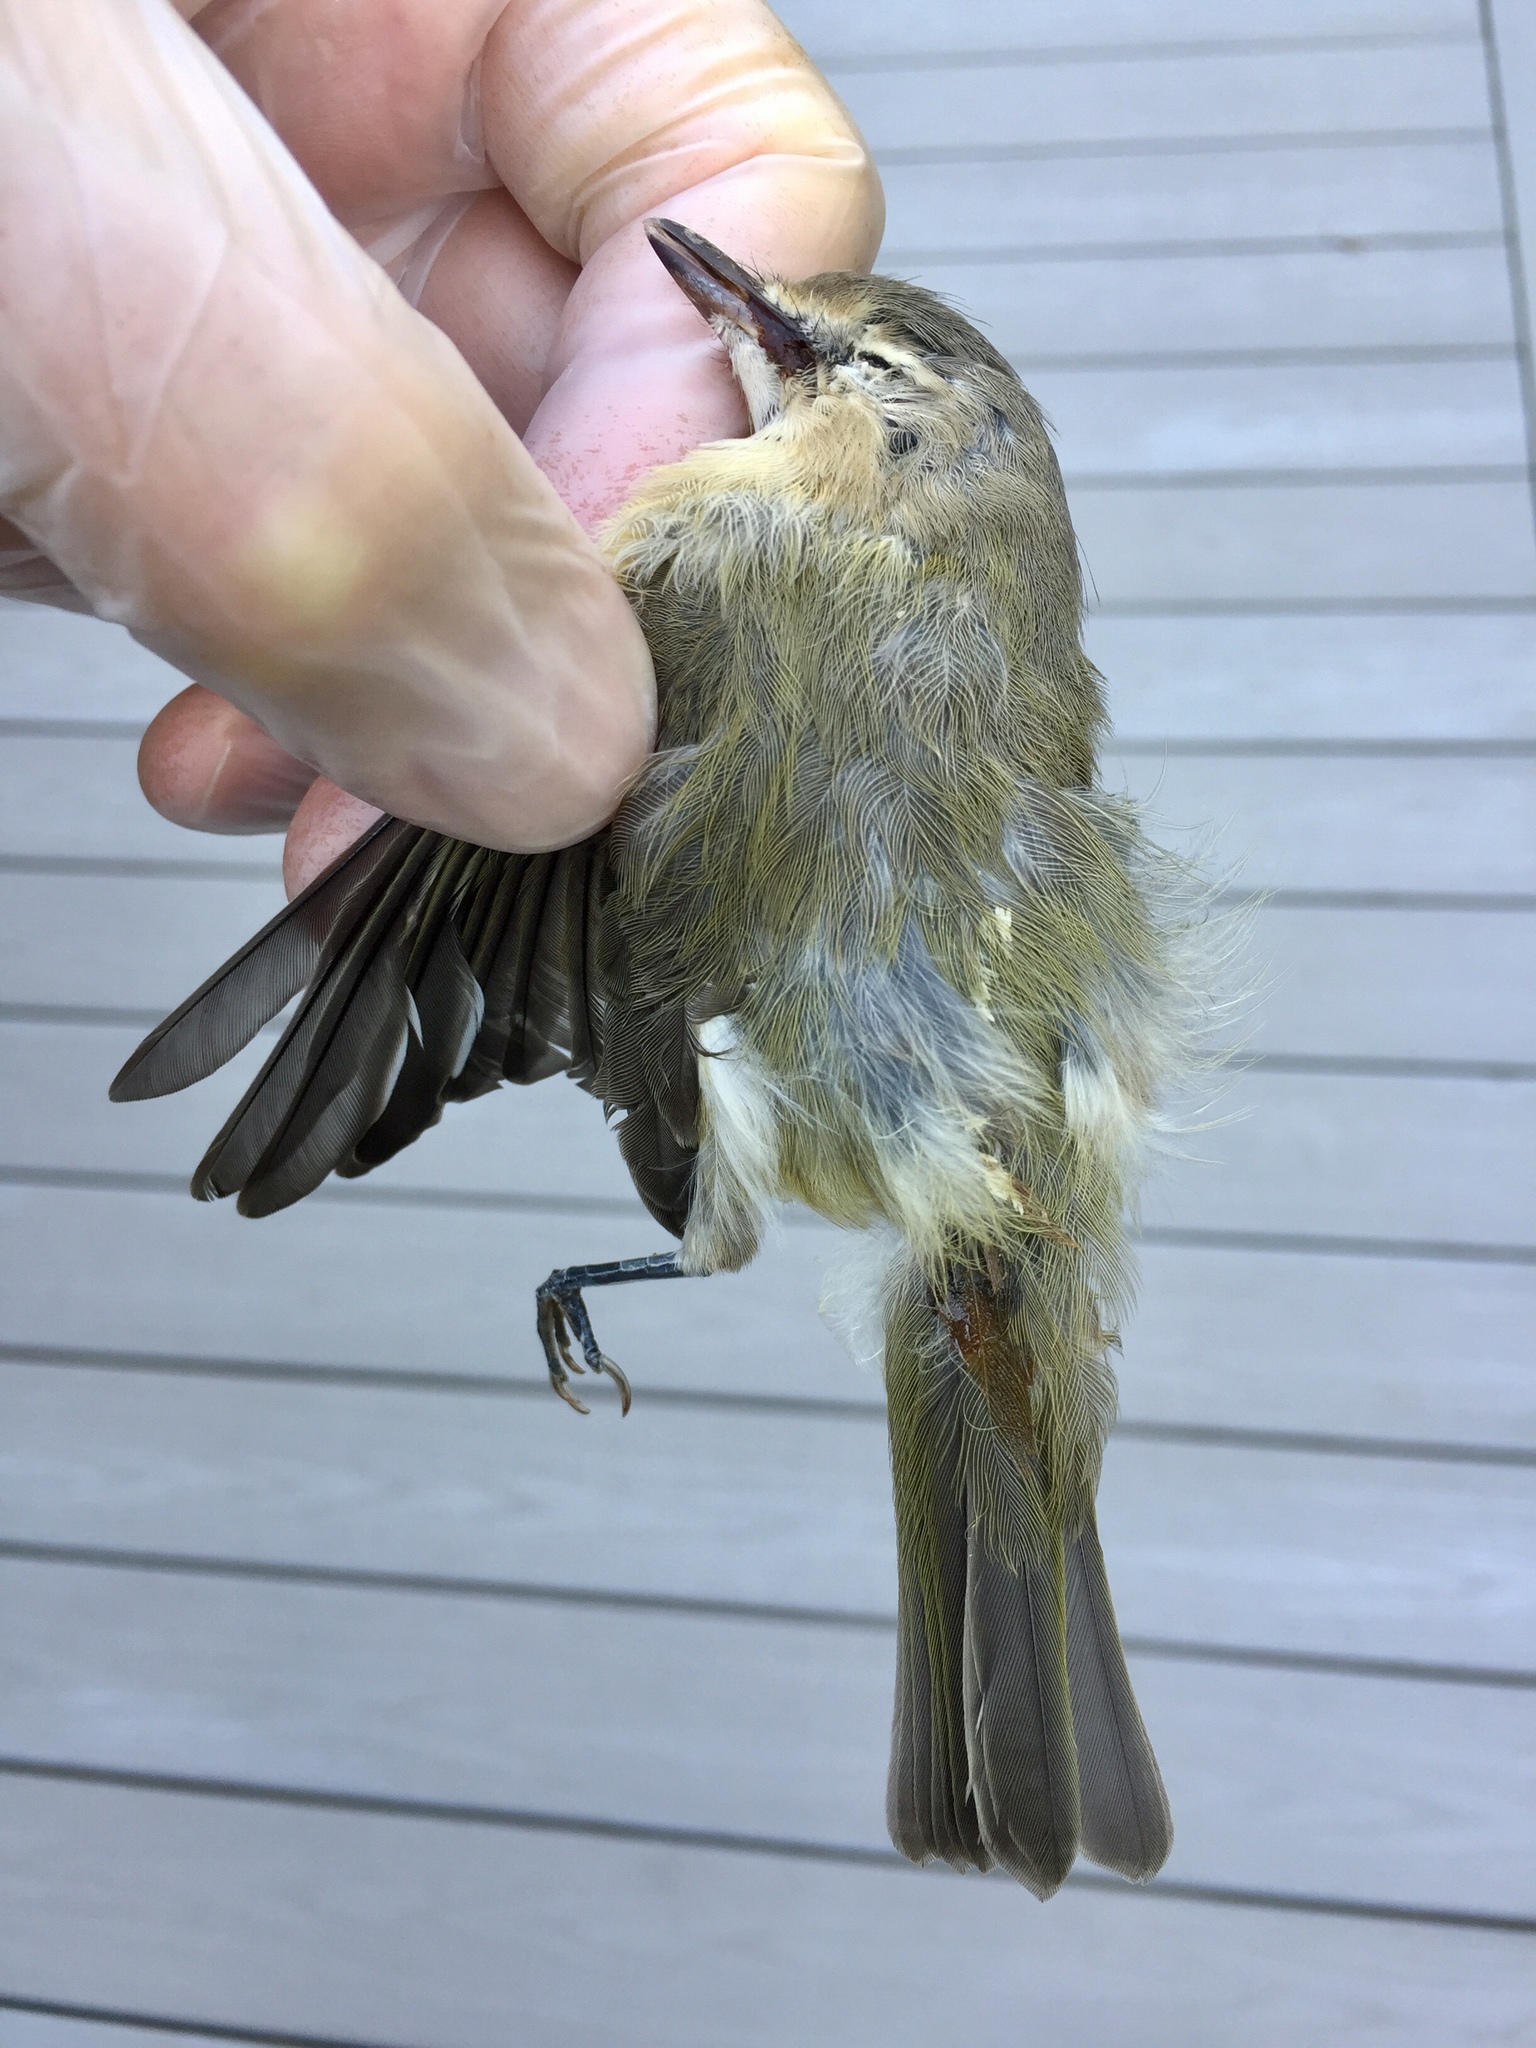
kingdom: Animalia
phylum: Chordata
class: Aves
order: Passeriformes
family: Vireonidae
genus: Vireo
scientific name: Vireo gilvus
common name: Warbling vireo
